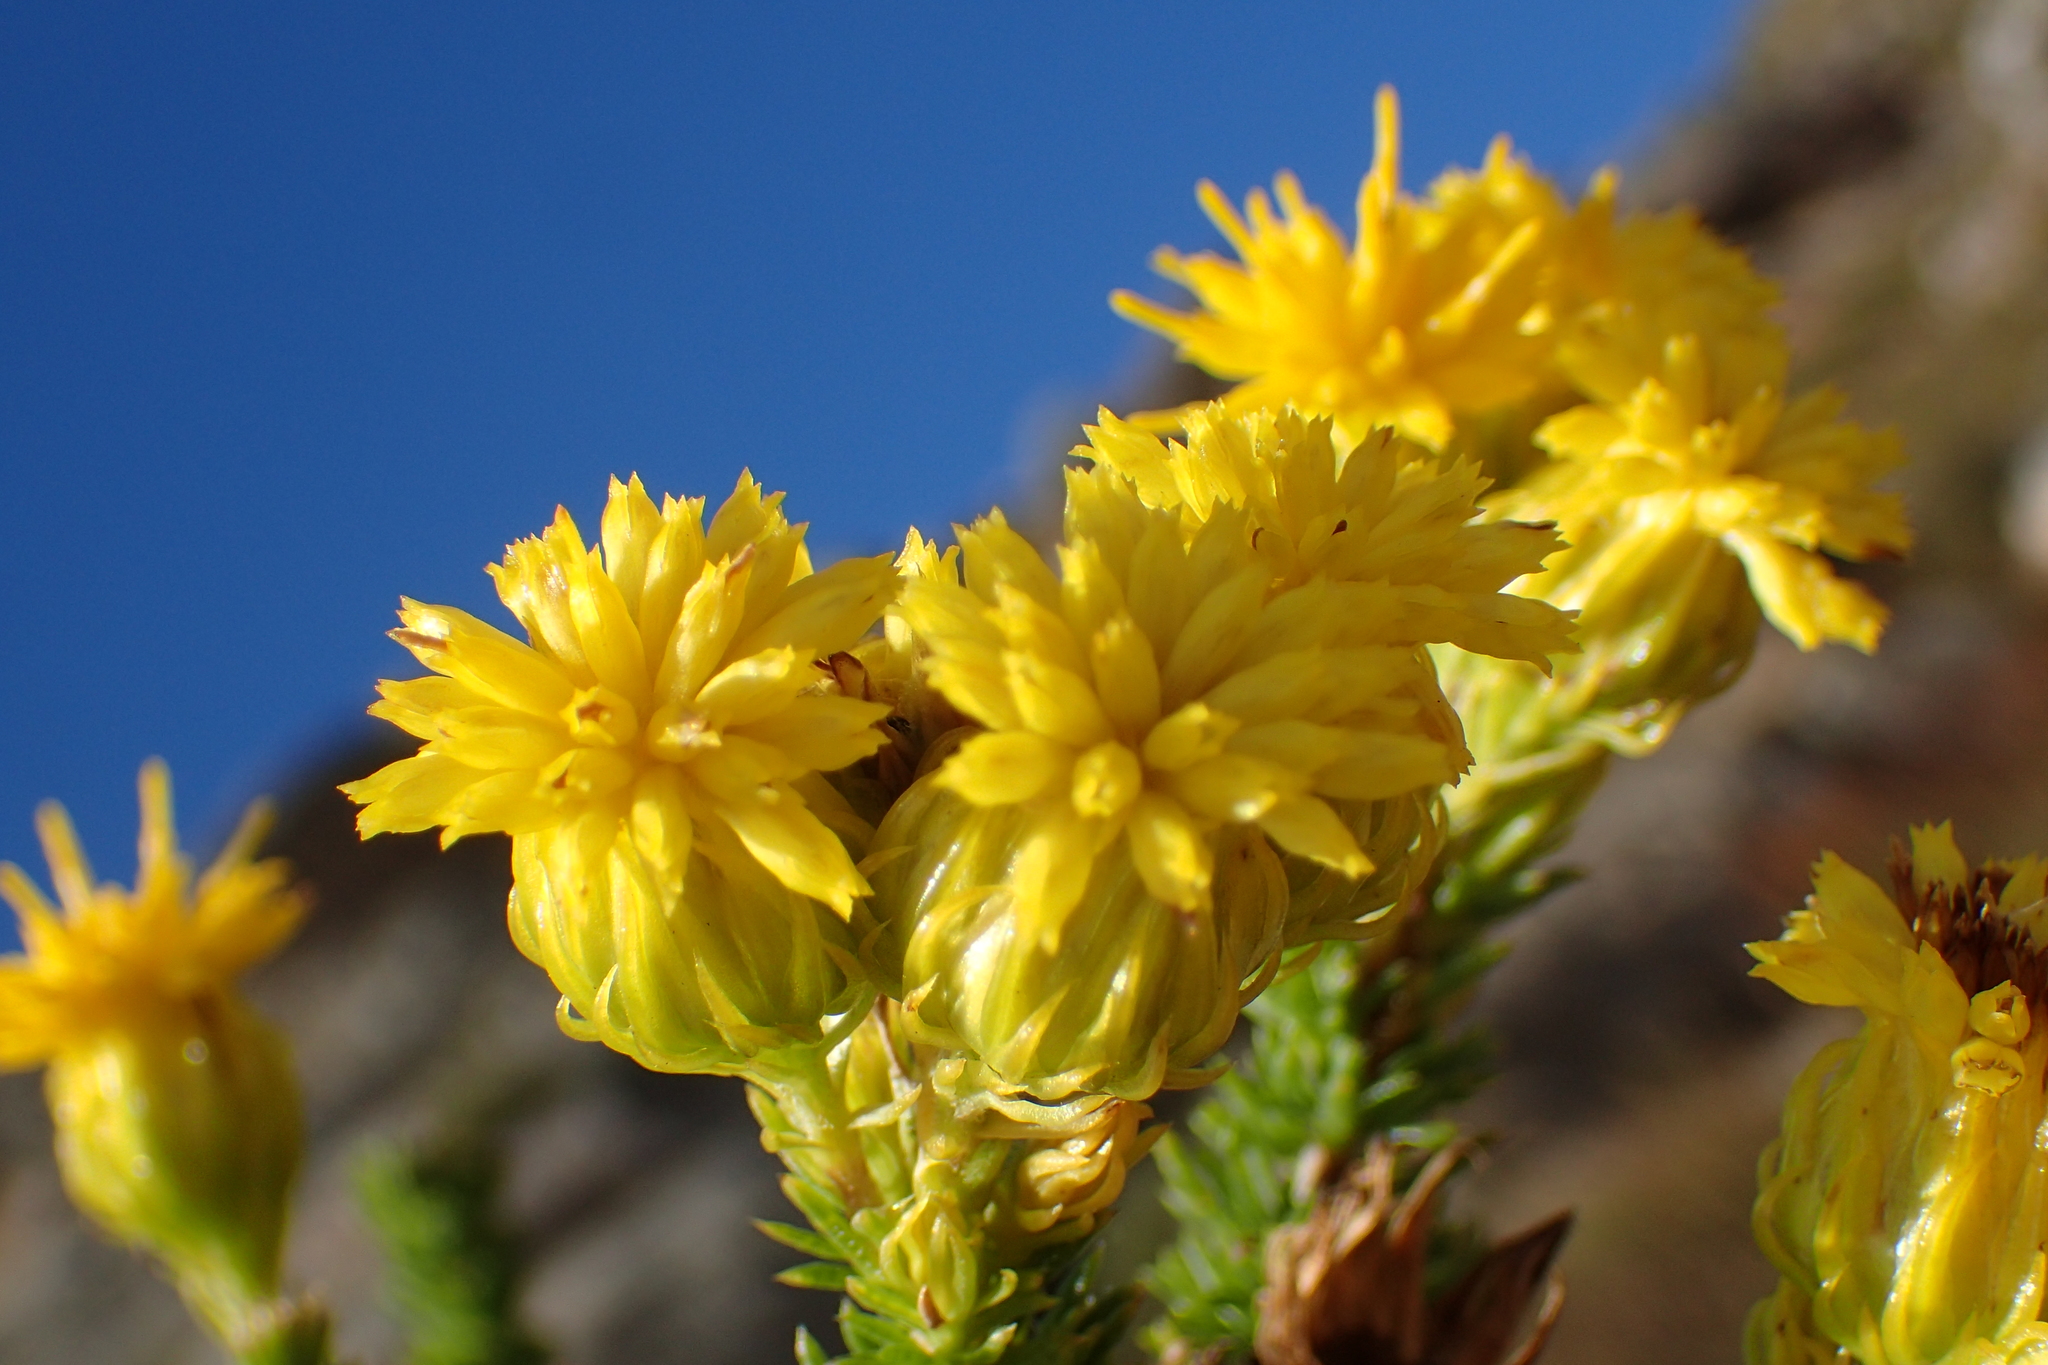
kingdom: Plantae
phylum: Tracheophyta
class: Magnoliopsida
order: Asterales
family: Asteraceae
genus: Pteronia
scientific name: Pteronia camphorata
